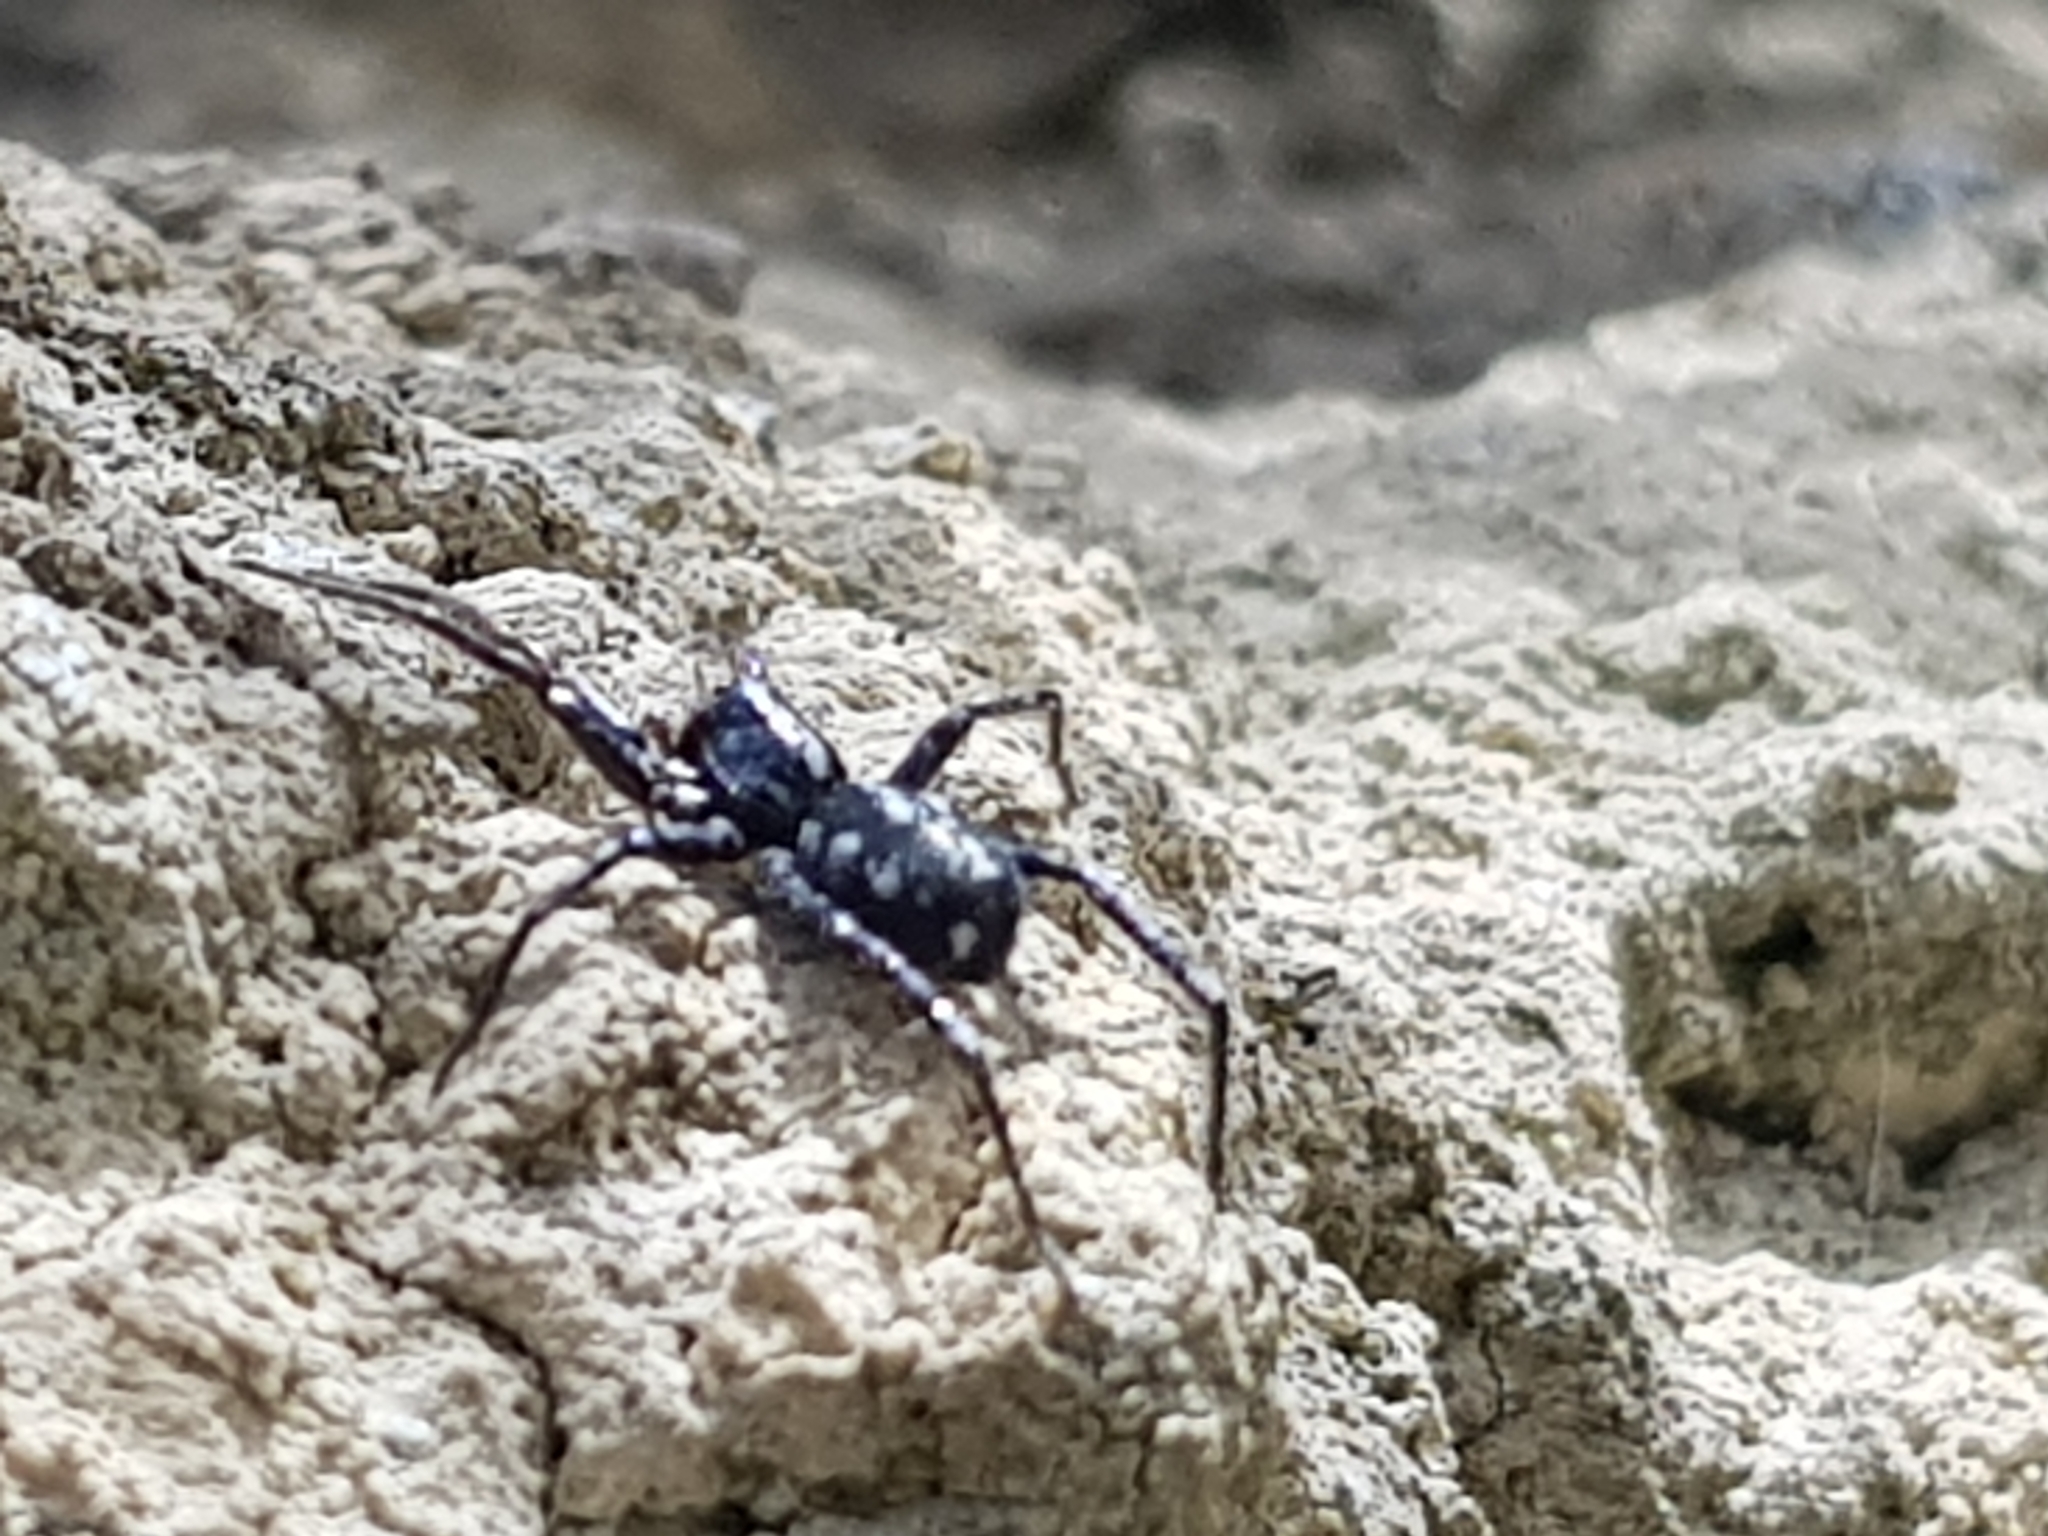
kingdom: Animalia
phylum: Arthropoda
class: Arachnida
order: Araneae
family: Corinnidae
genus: Nyssus
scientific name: Nyssus coloripes
